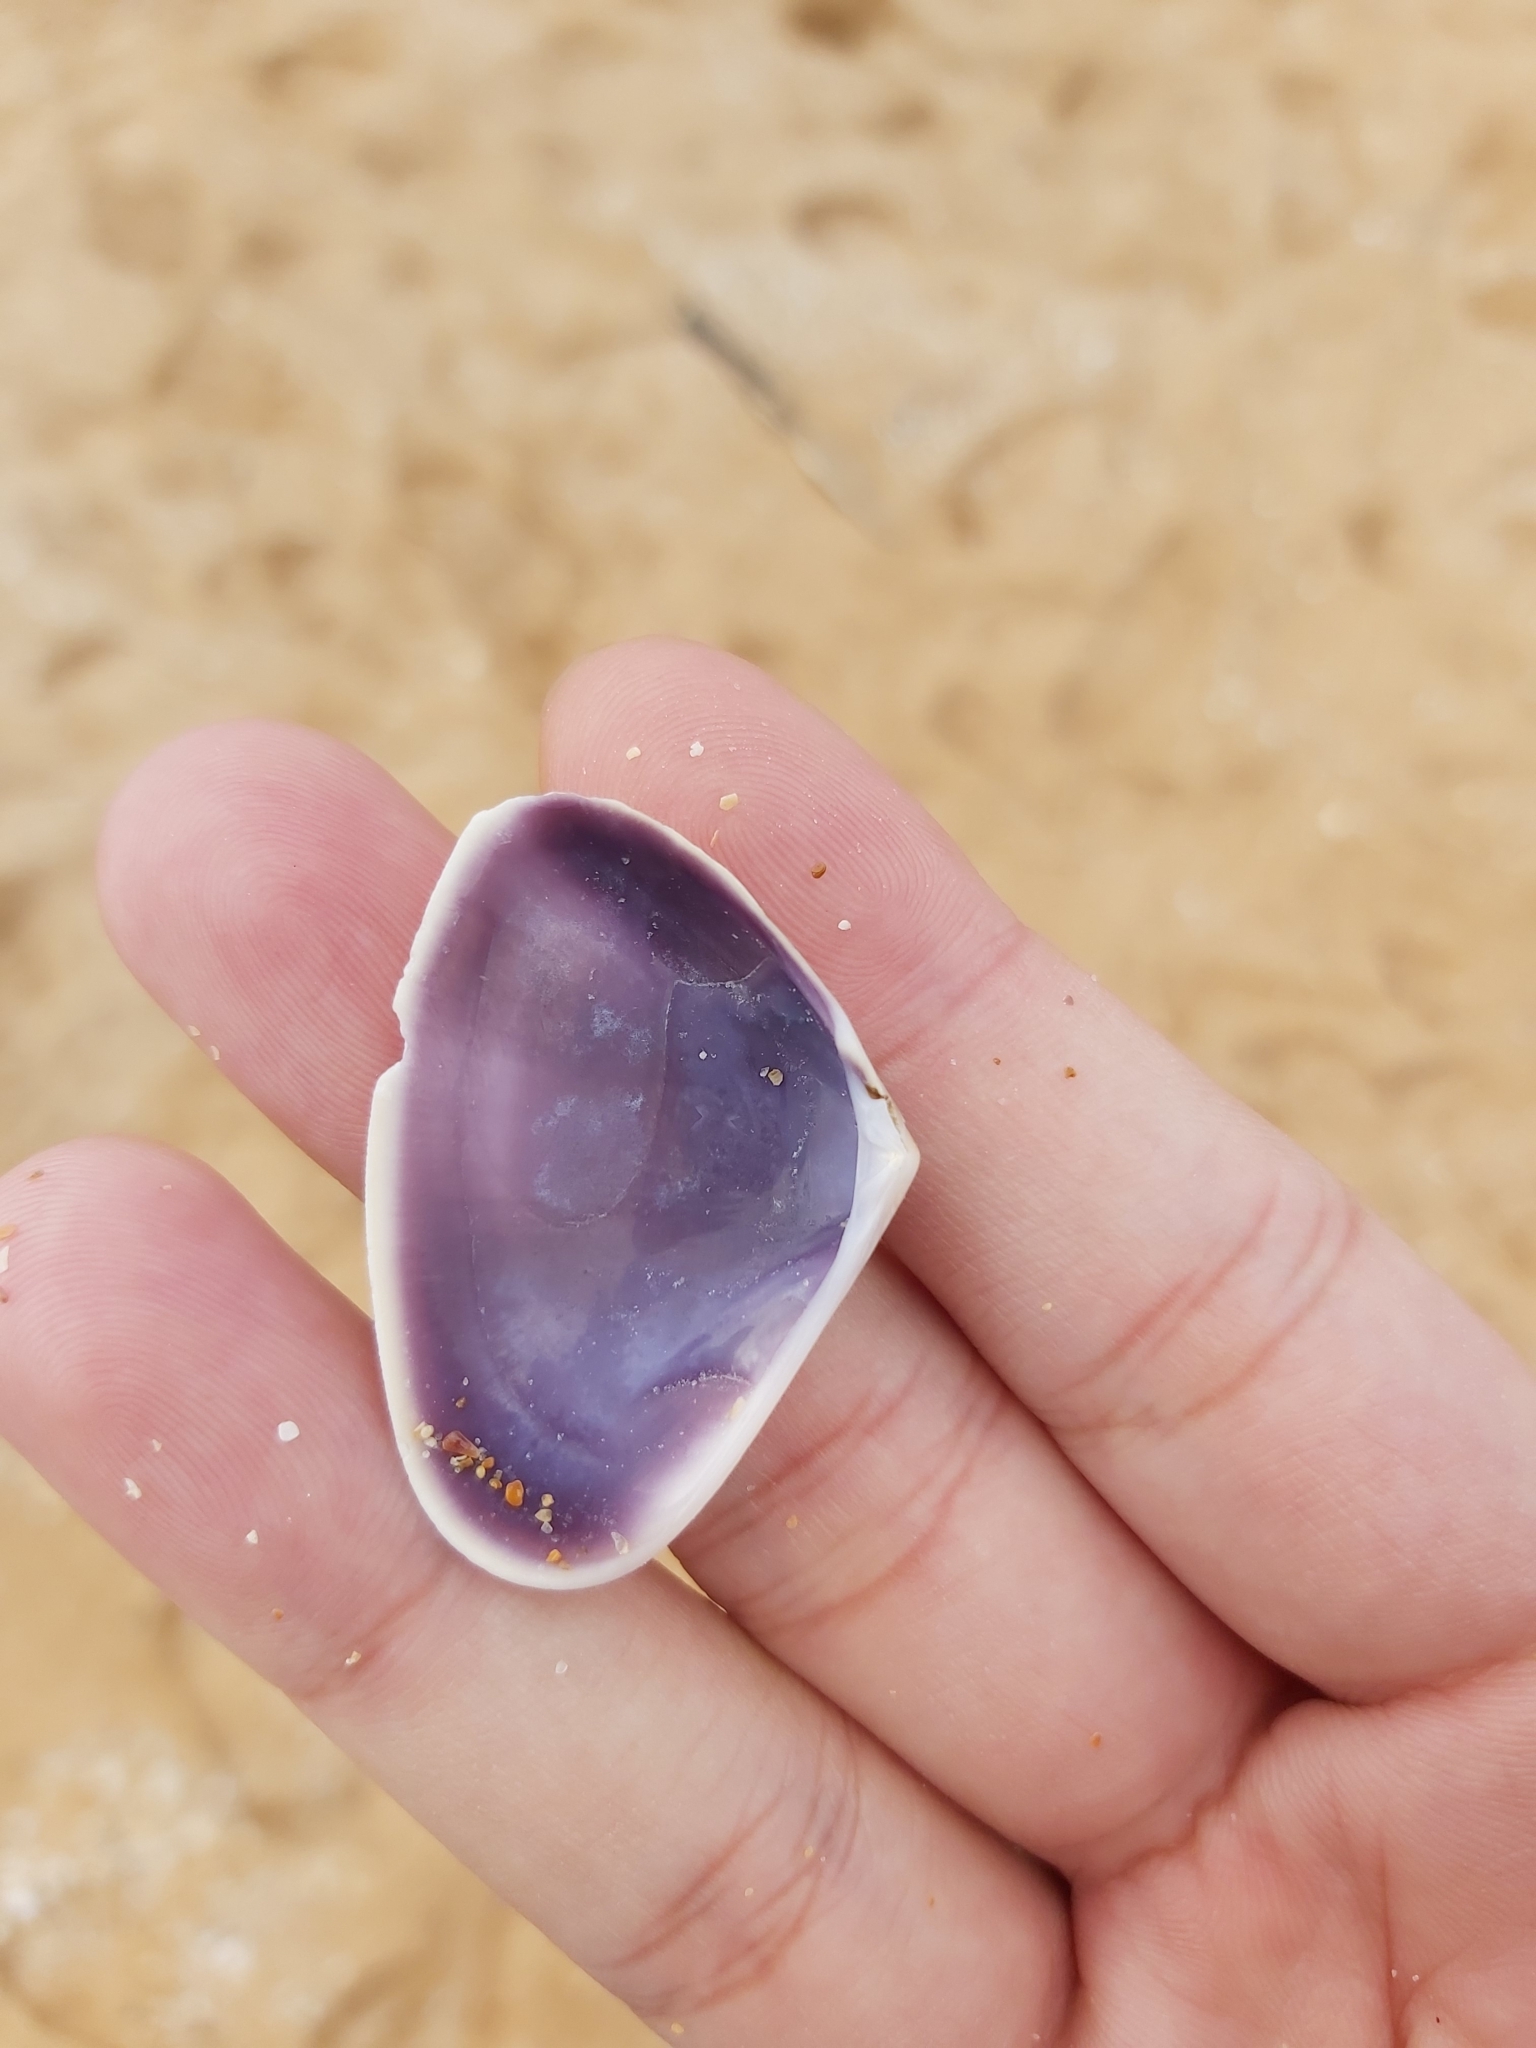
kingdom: Animalia
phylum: Mollusca
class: Bivalvia
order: Cardiida
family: Donacidae
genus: Latona
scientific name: Latona deltoides
